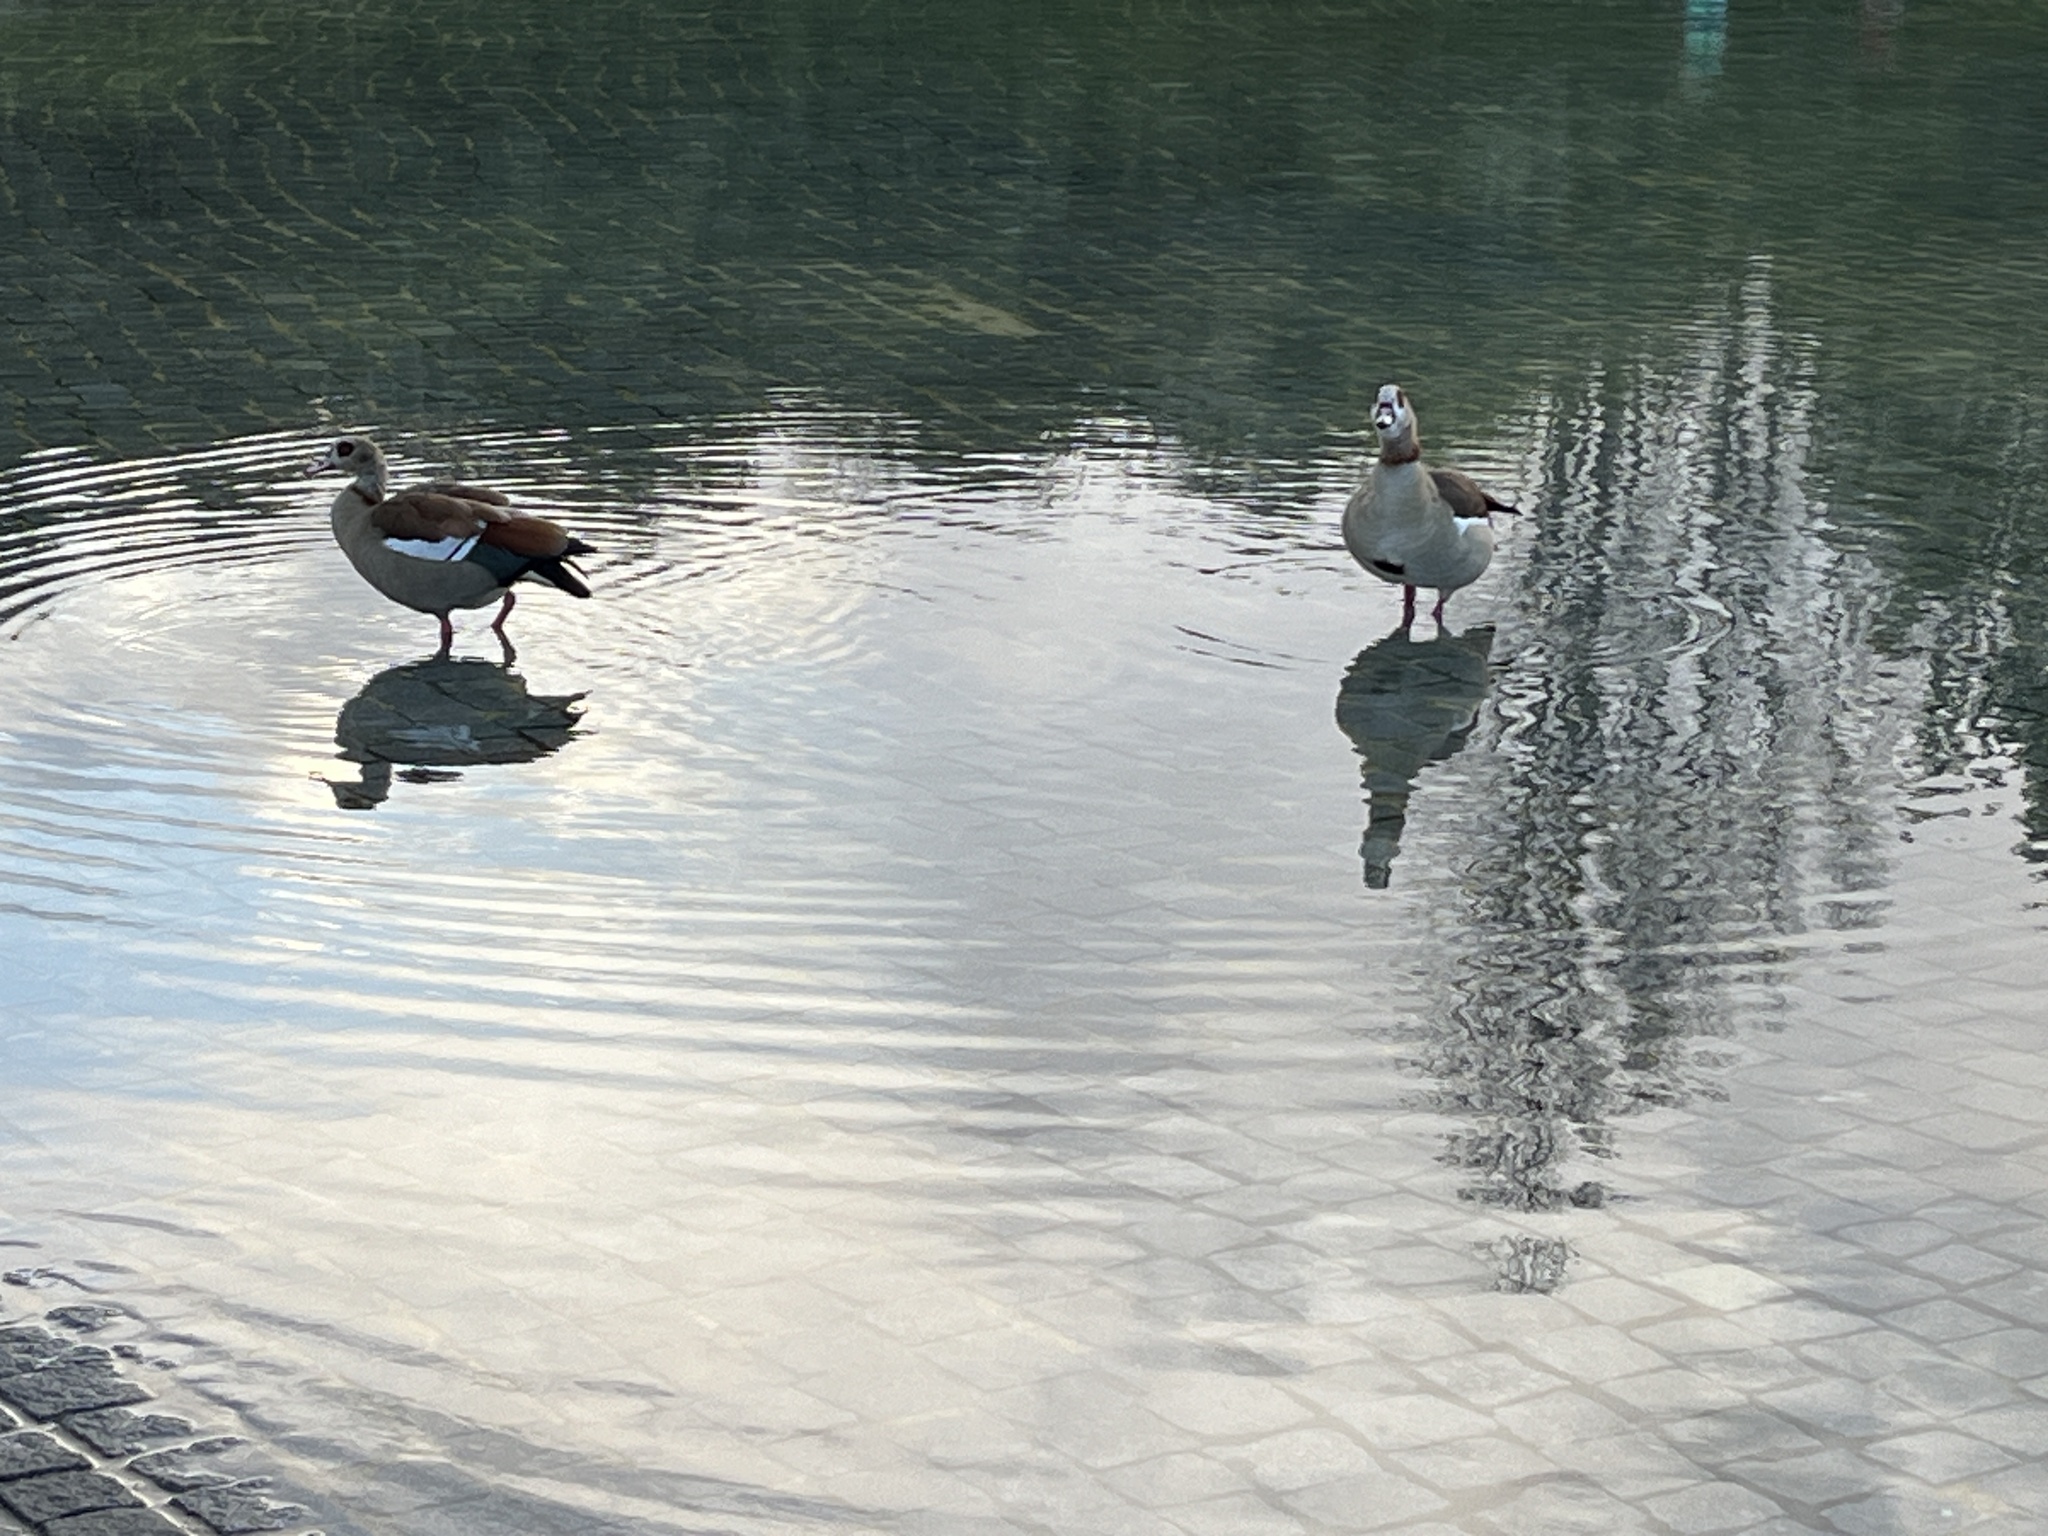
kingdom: Animalia
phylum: Chordata
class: Aves
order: Anseriformes
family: Anatidae
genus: Alopochen
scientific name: Alopochen aegyptiaca
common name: Egyptian goose
